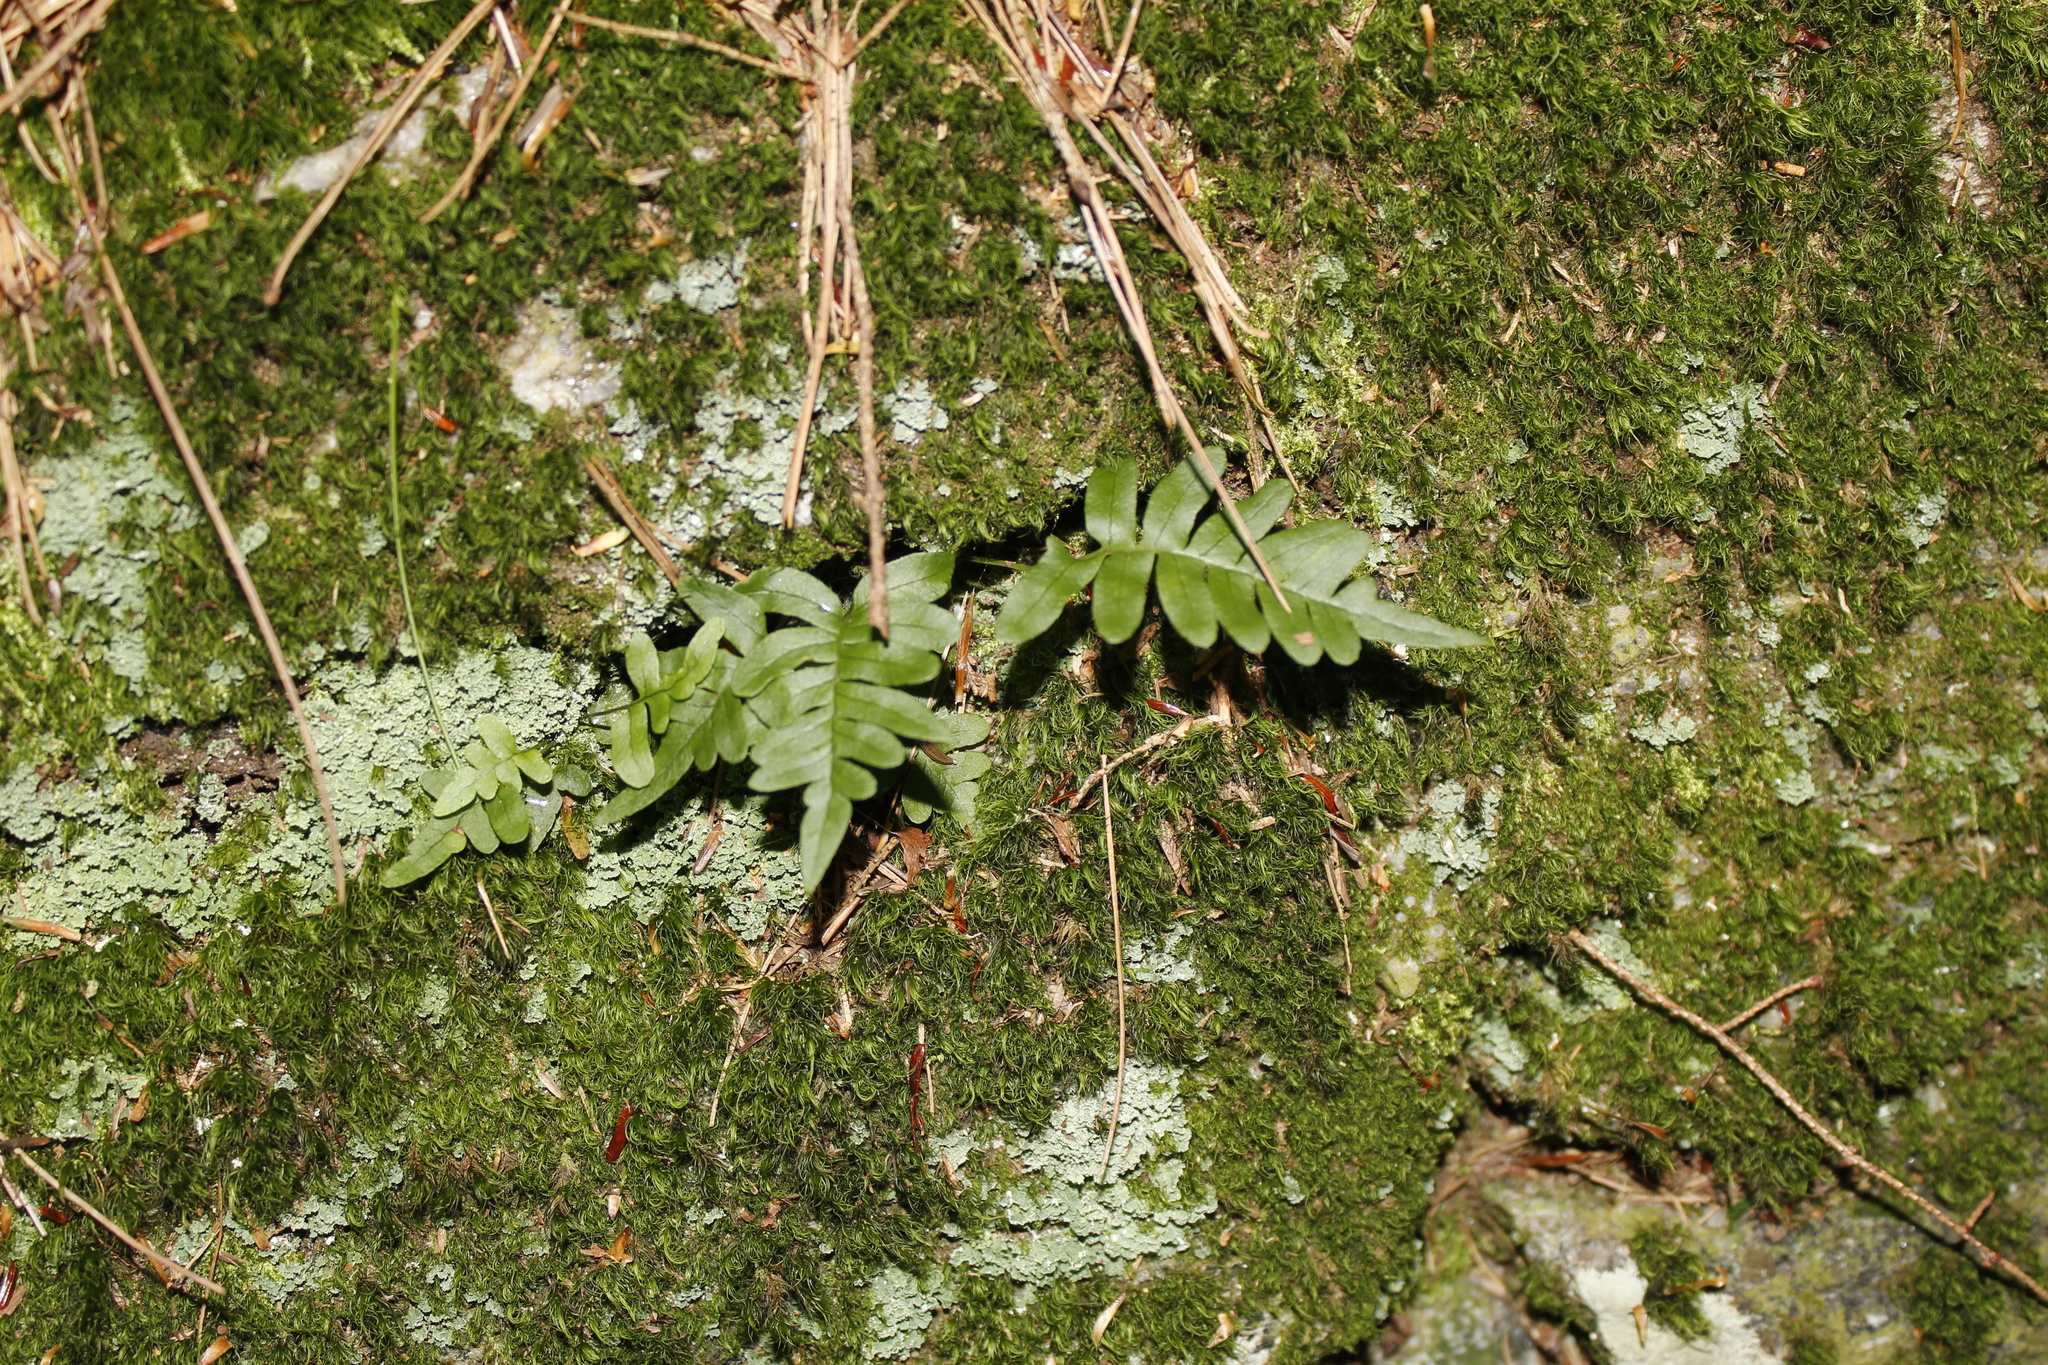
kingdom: Plantae
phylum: Tracheophyta
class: Polypodiopsida
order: Polypodiales
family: Polypodiaceae
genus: Polypodium
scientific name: Polypodium virginianum
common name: American wall fern
